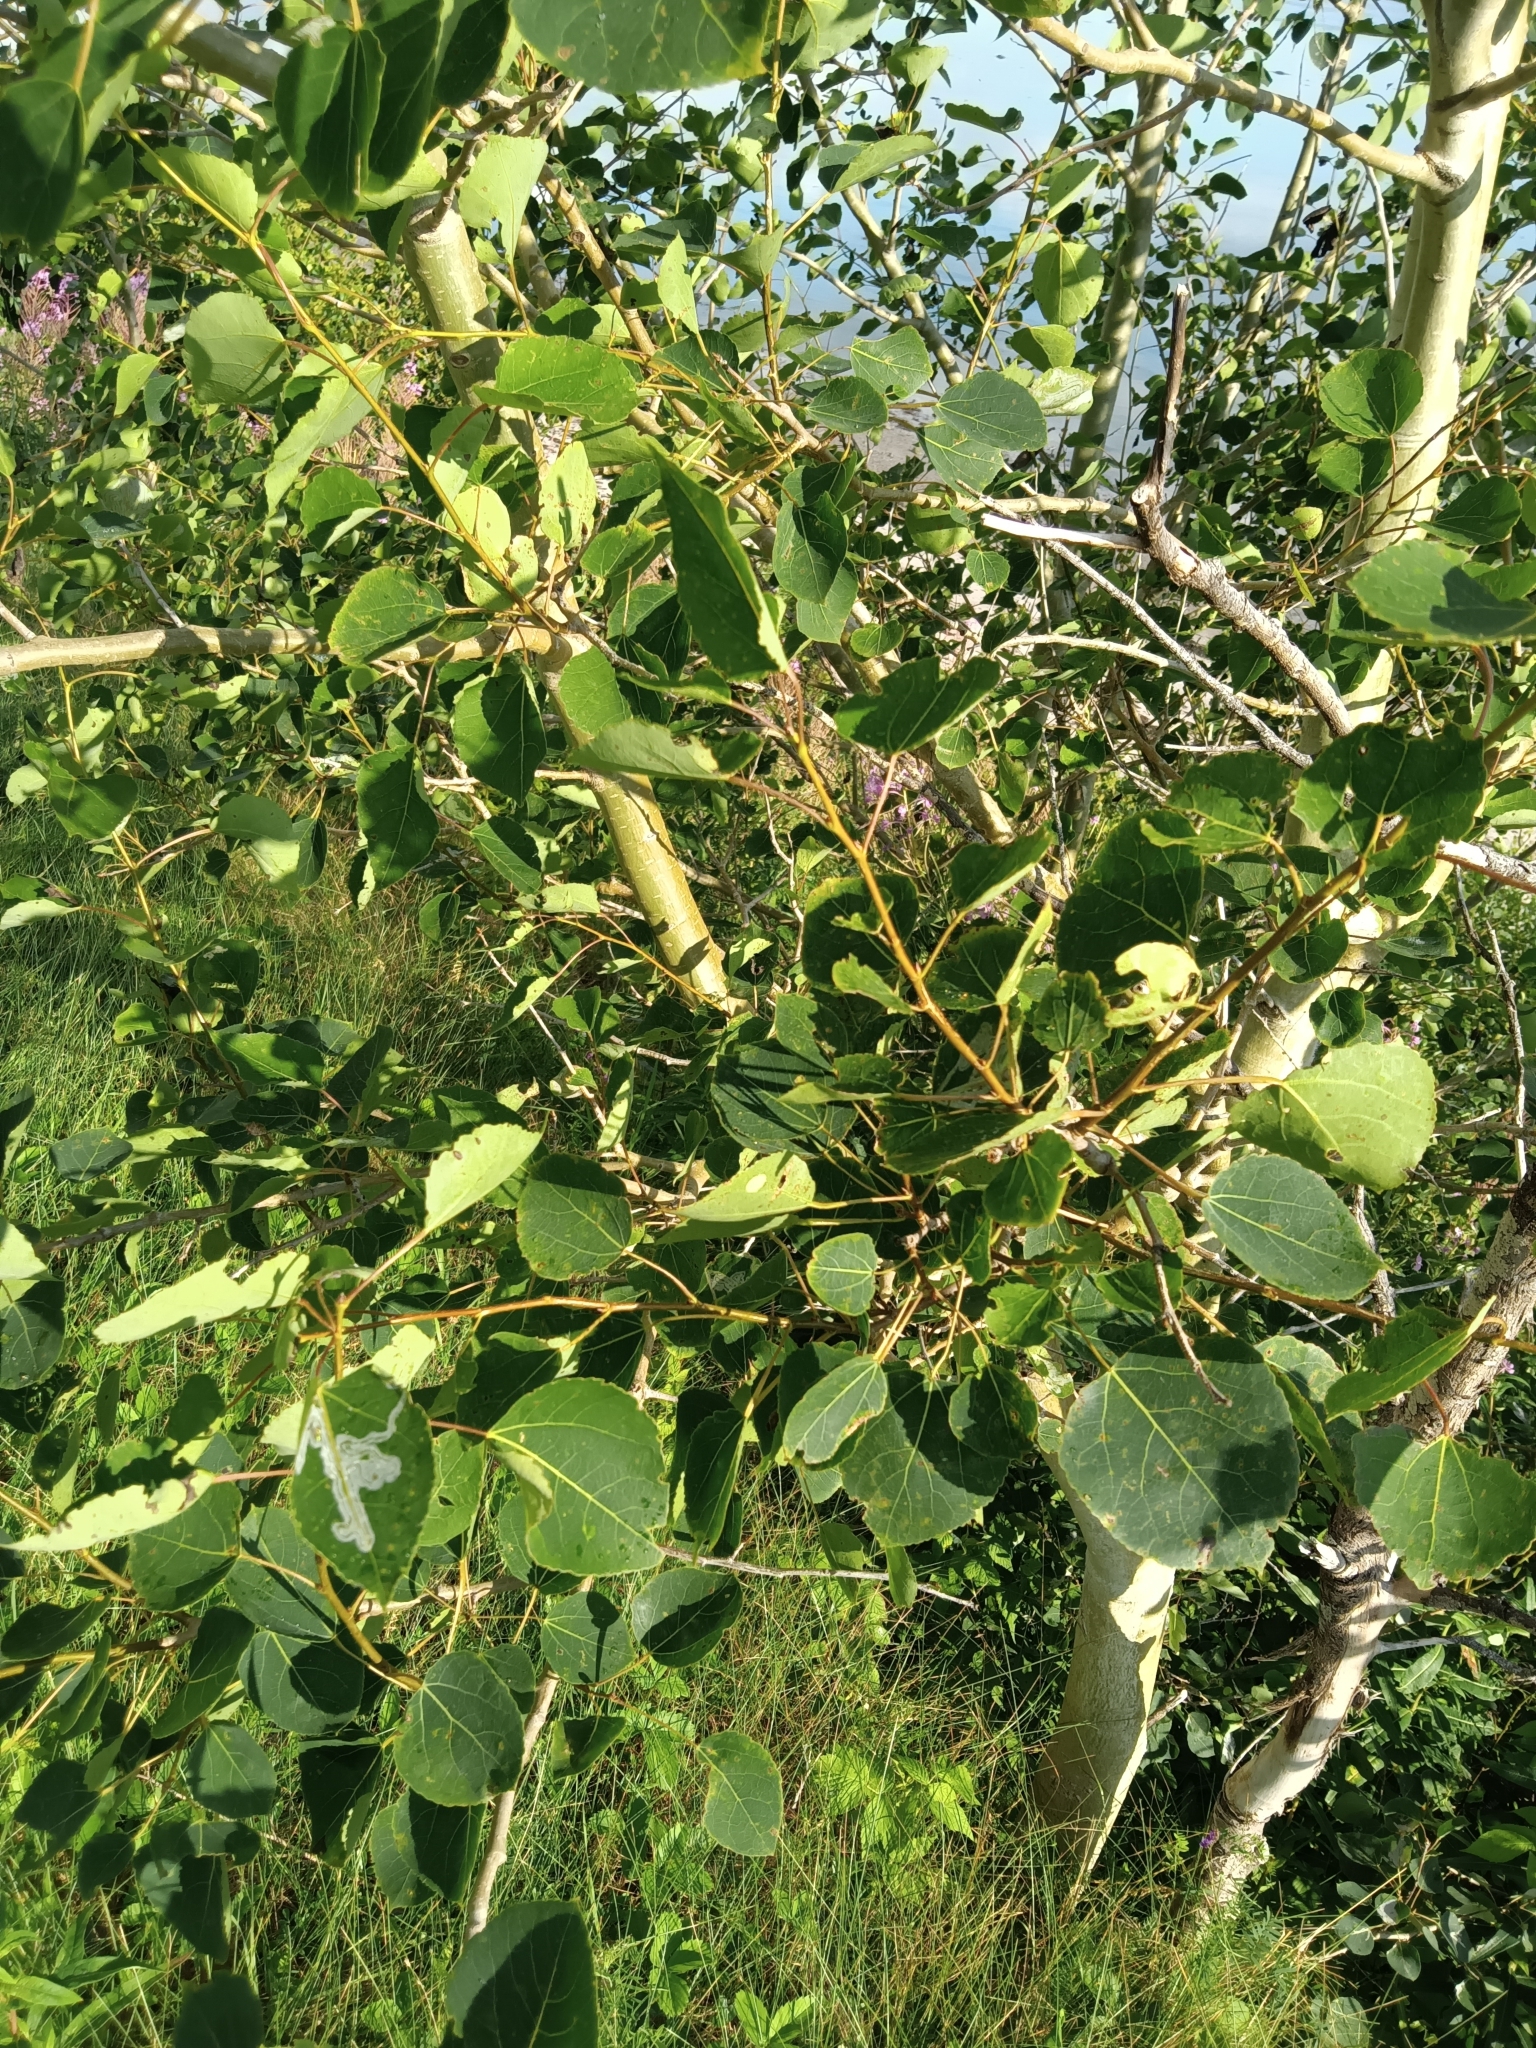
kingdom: Plantae
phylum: Tracheophyta
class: Magnoliopsida
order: Malpighiales
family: Salicaceae
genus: Populus
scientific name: Populus tremuloides
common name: Quaking aspen
